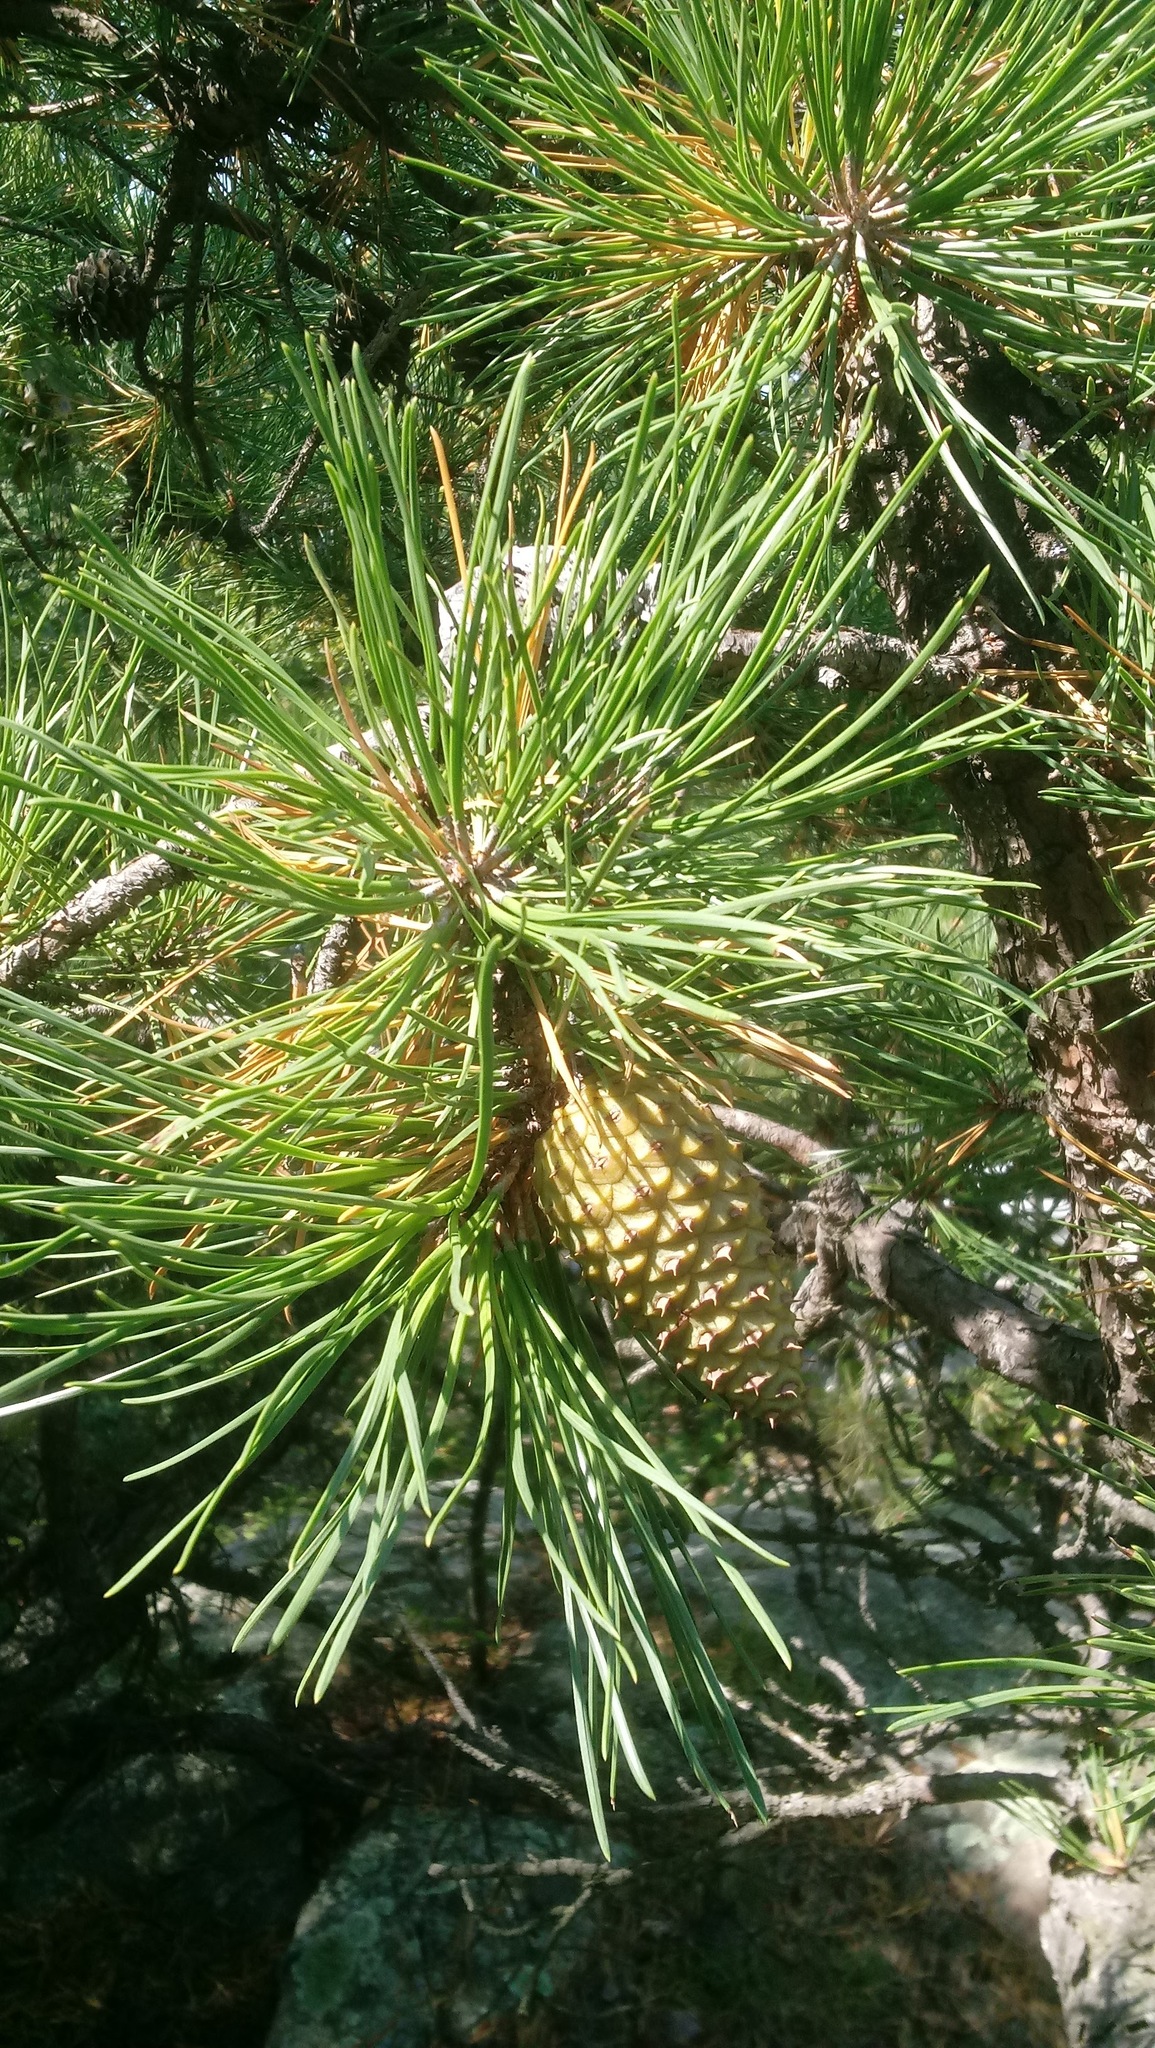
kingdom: Plantae
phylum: Tracheophyta
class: Pinopsida
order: Pinales
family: Pinaceae
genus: Pinus
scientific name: Pinus rigida
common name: Pitch pine
